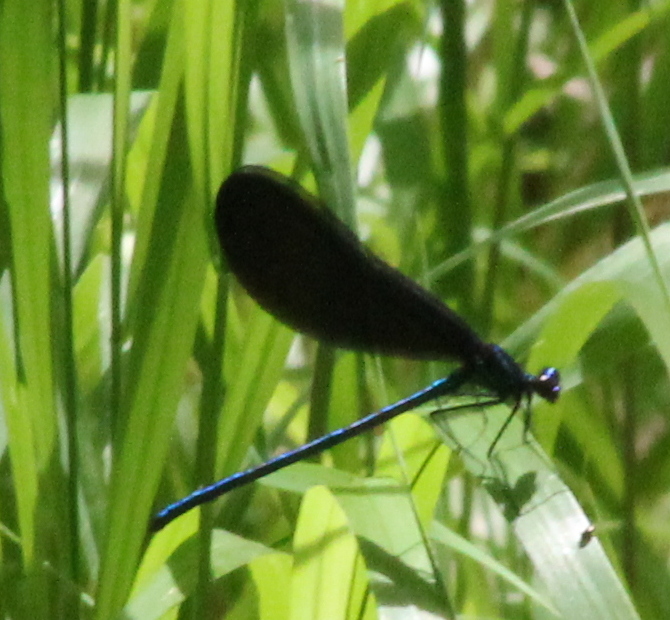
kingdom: Animalia
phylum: Arthropoda
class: Insecta
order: Odonata
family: Calopterygidae
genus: Calopteryx
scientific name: Calopteryx maculata
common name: Ebony jewelwing
